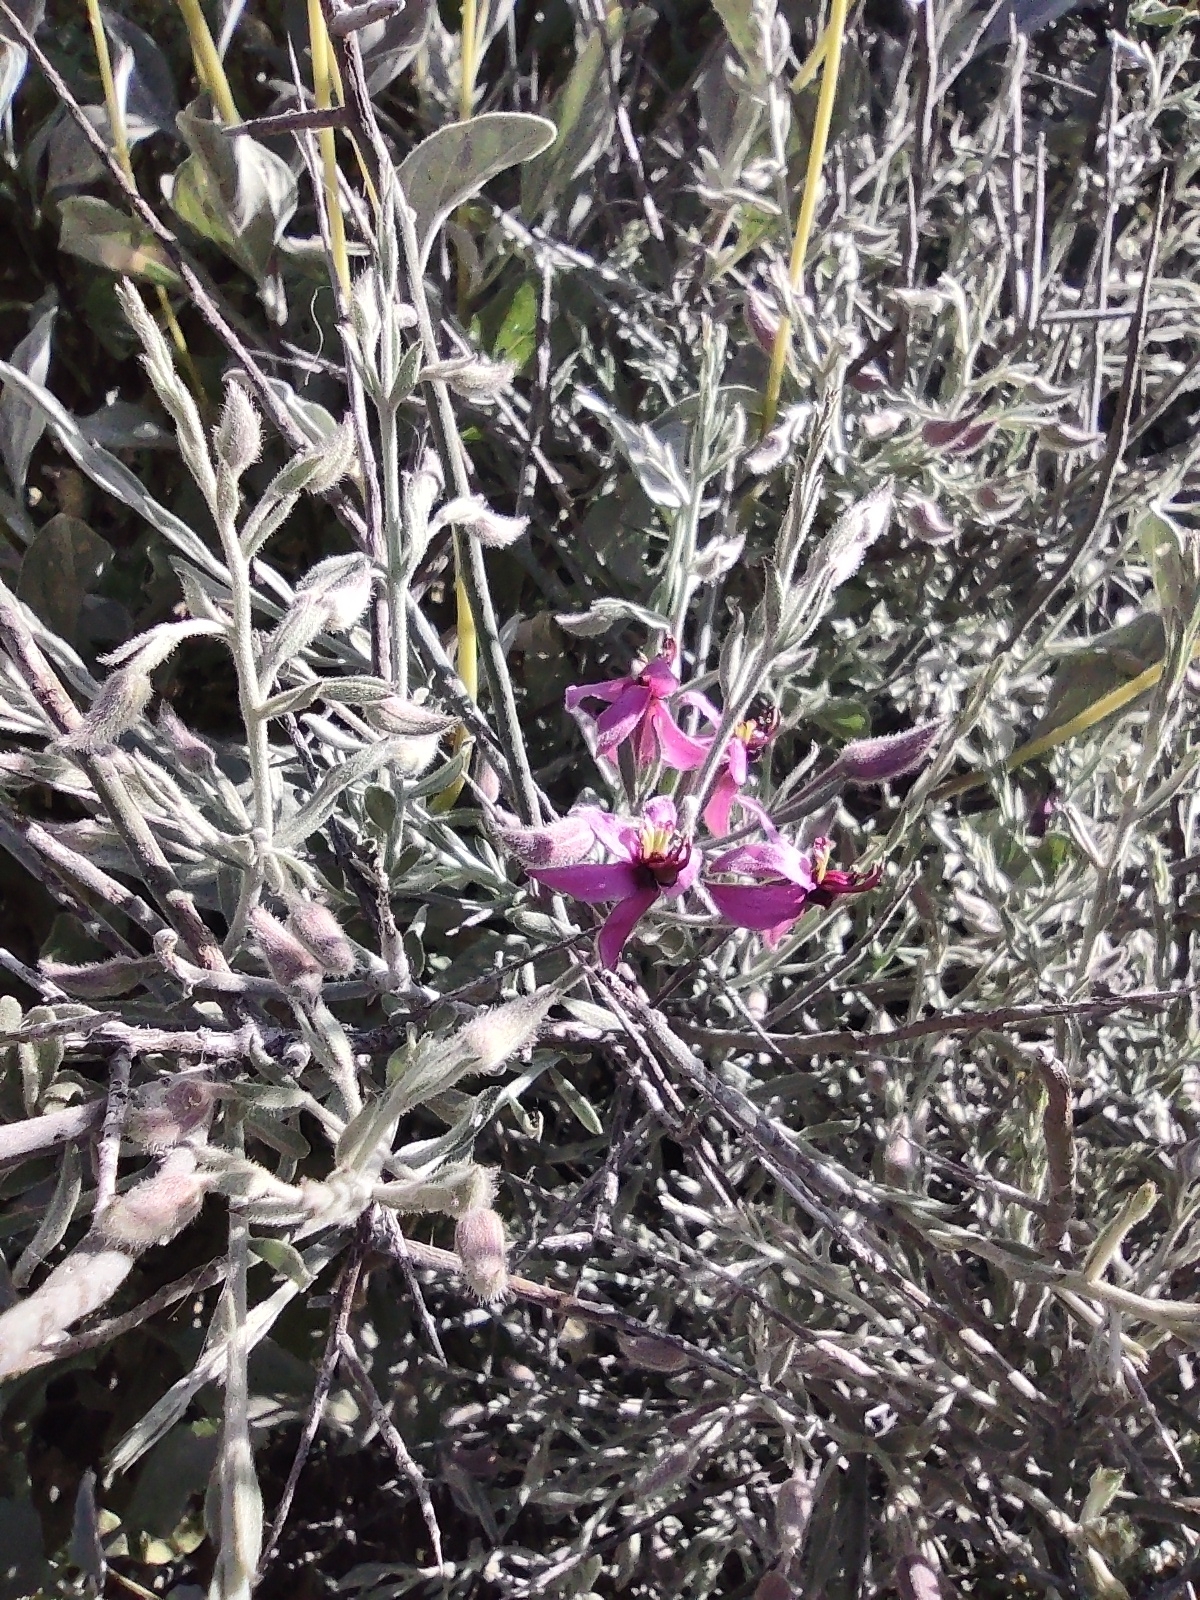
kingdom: Plantae
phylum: Tracheophyta
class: Magnoliopsida
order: Zygophyllales
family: Krameriaceae
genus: Krameria
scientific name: Krameria bicolor
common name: White ratany
